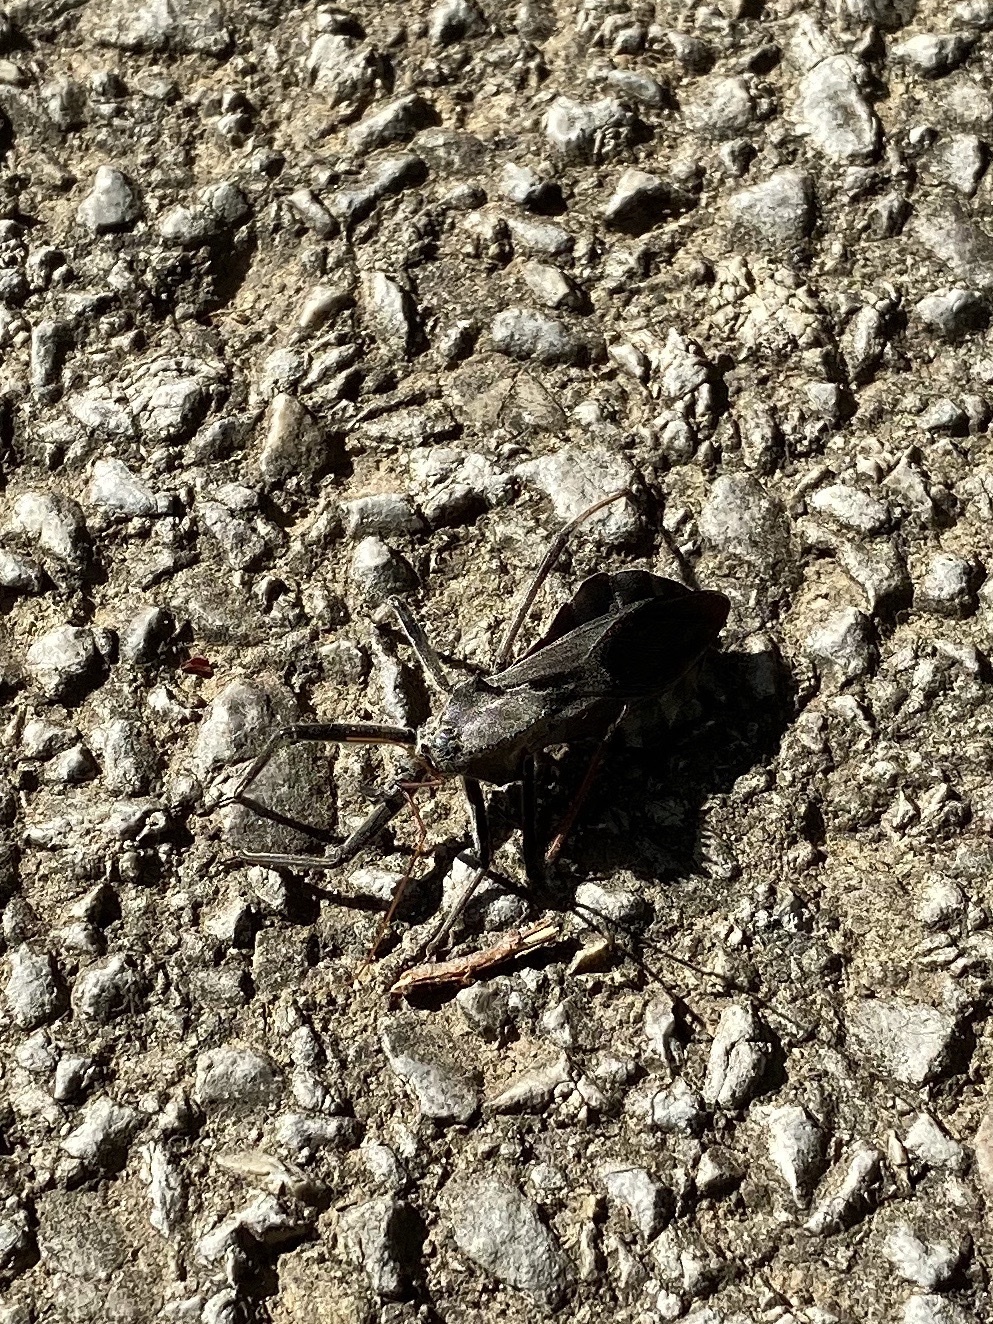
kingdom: Animalia
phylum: Arthropoda
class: Insecta
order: Hemiptera
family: Reduviidae
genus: Arilus
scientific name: Arilus cristatus
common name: North american wheel bug
